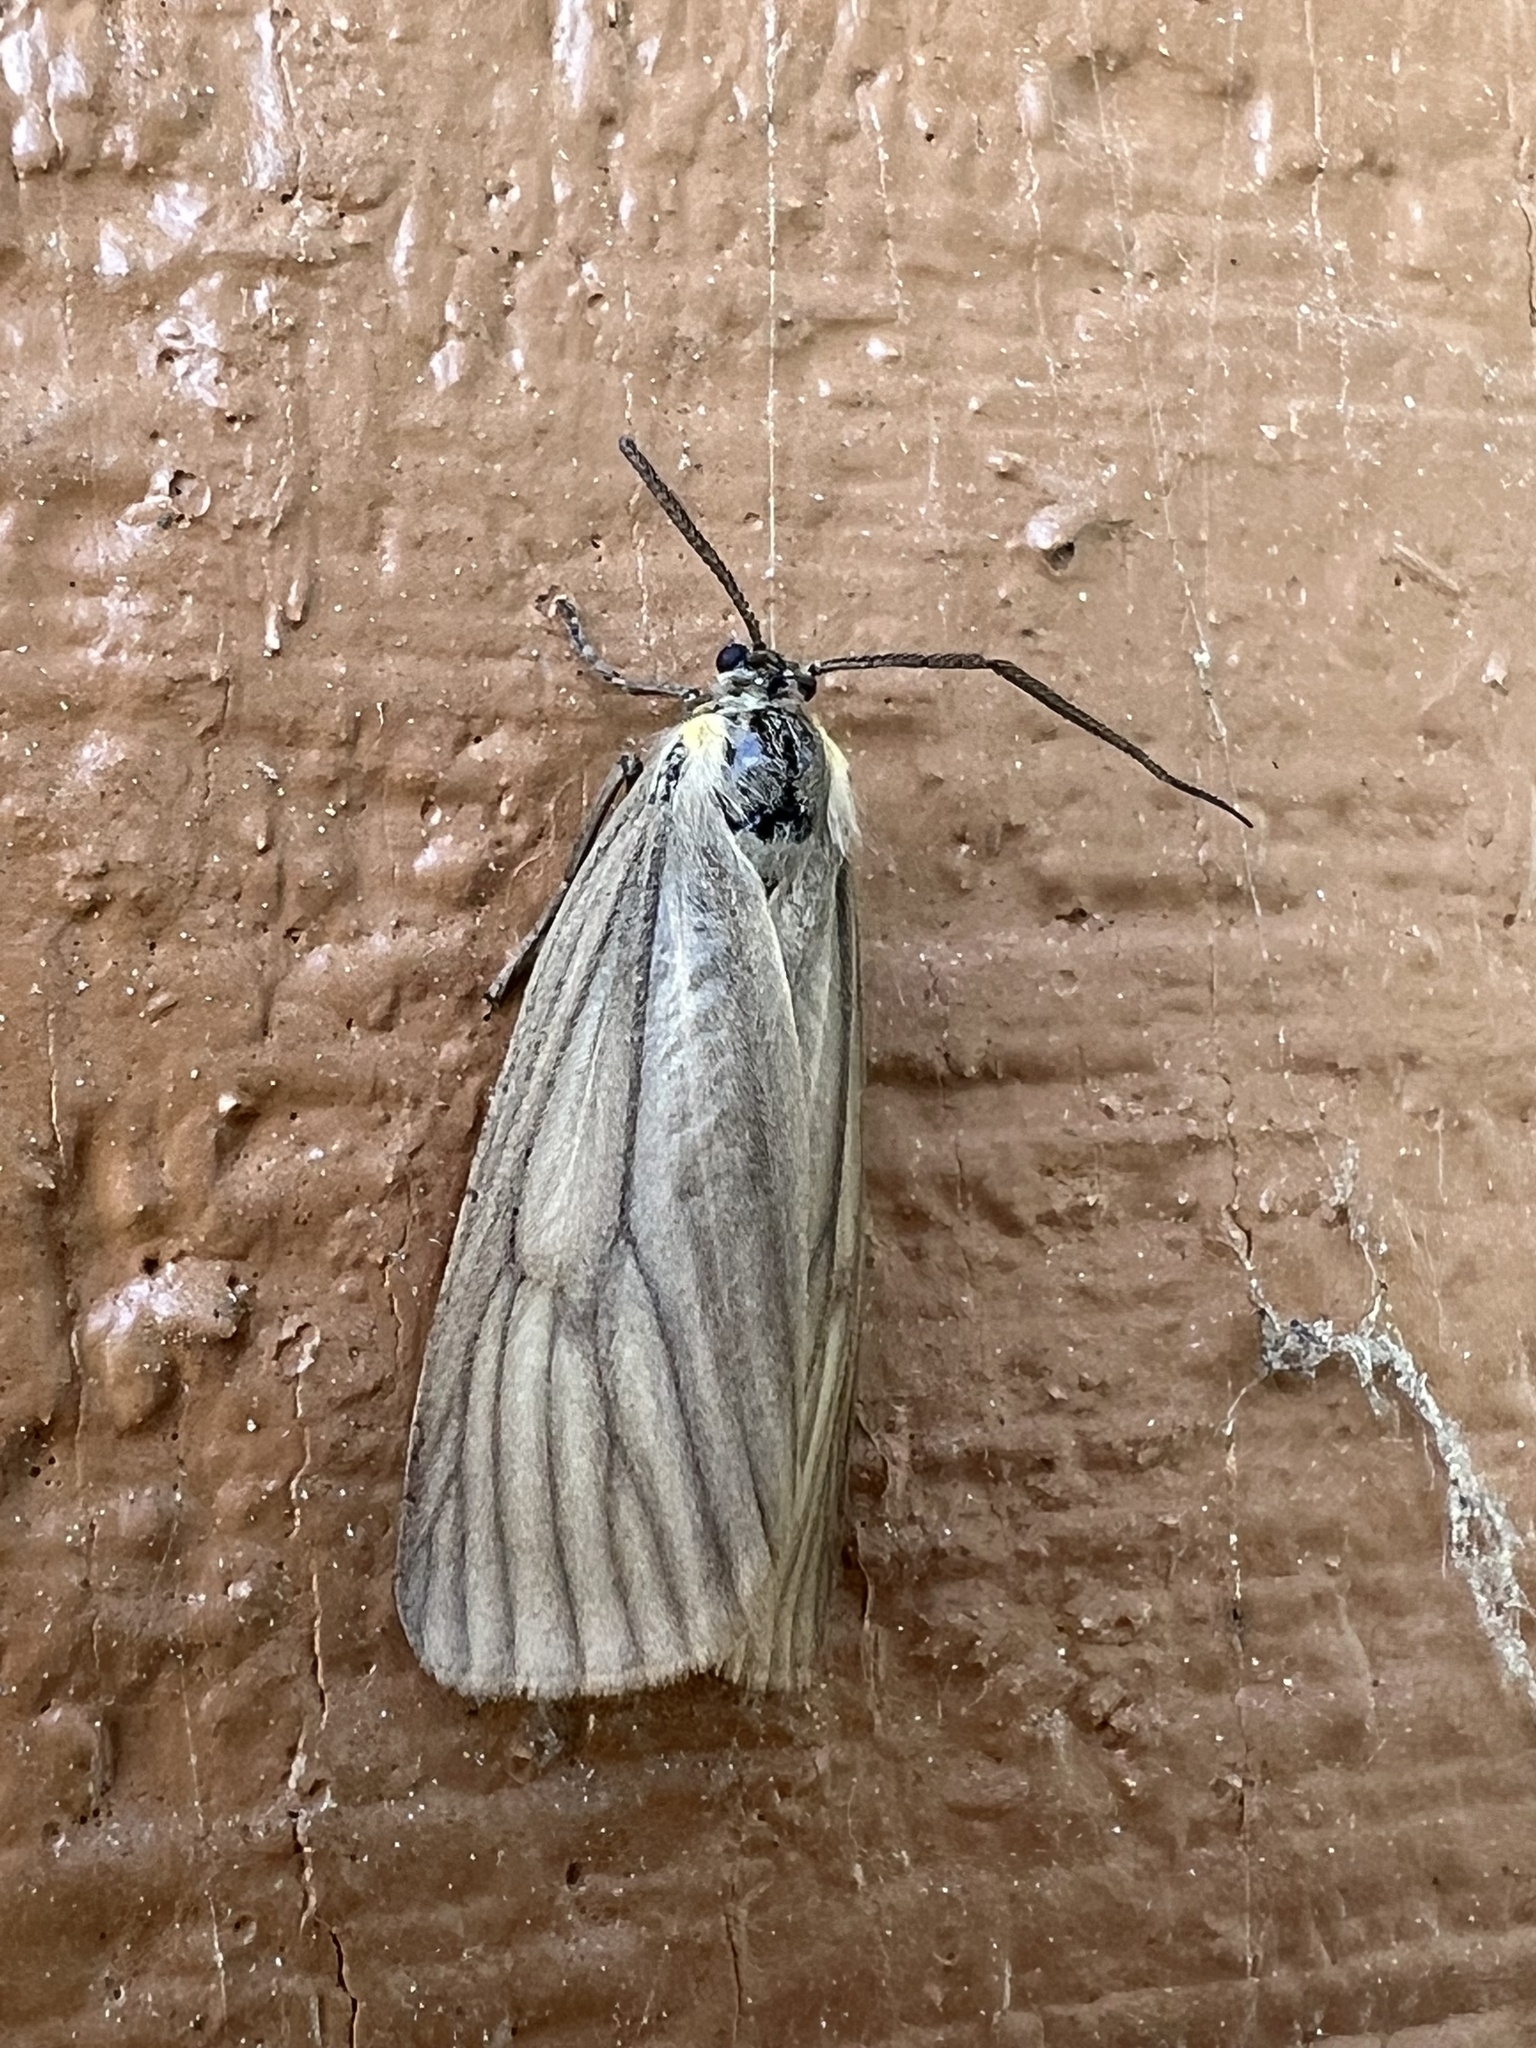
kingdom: Animalia
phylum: Arthropoda
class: Insecta
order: Lepidoptera
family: Notodontidae
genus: Phryganidia
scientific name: Phryganidia californica
